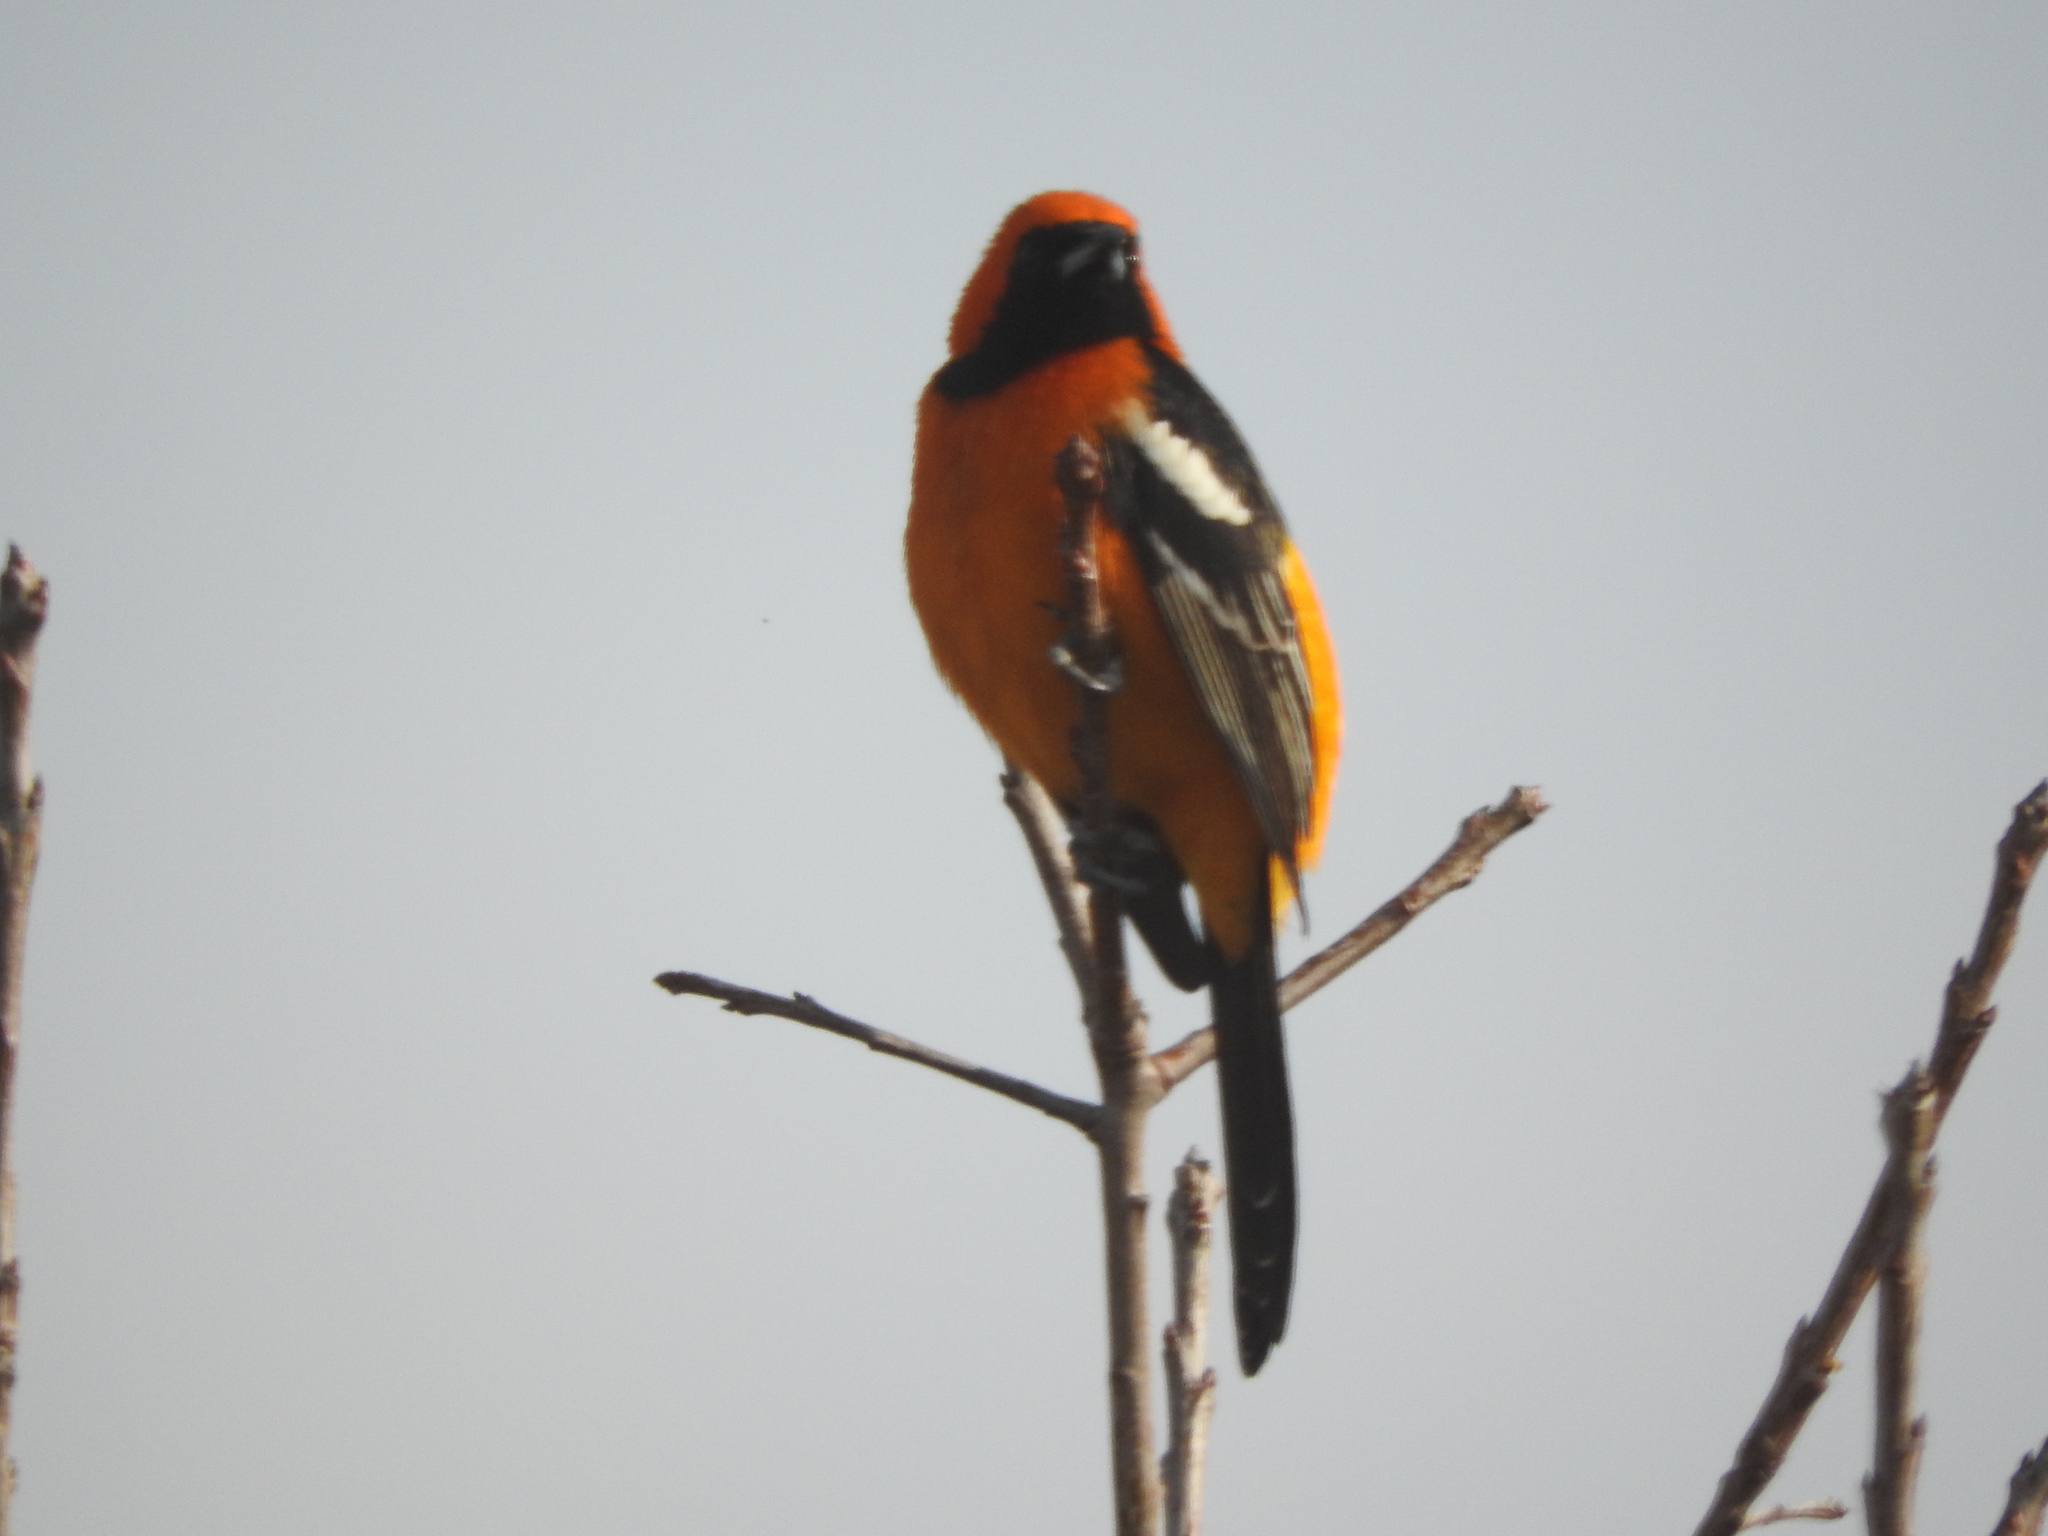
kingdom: Animalia
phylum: Chordata
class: Aves
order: Passeriformes
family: Icteridae
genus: Icterus
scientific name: Icterus cucullatus
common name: Hooded oriole
